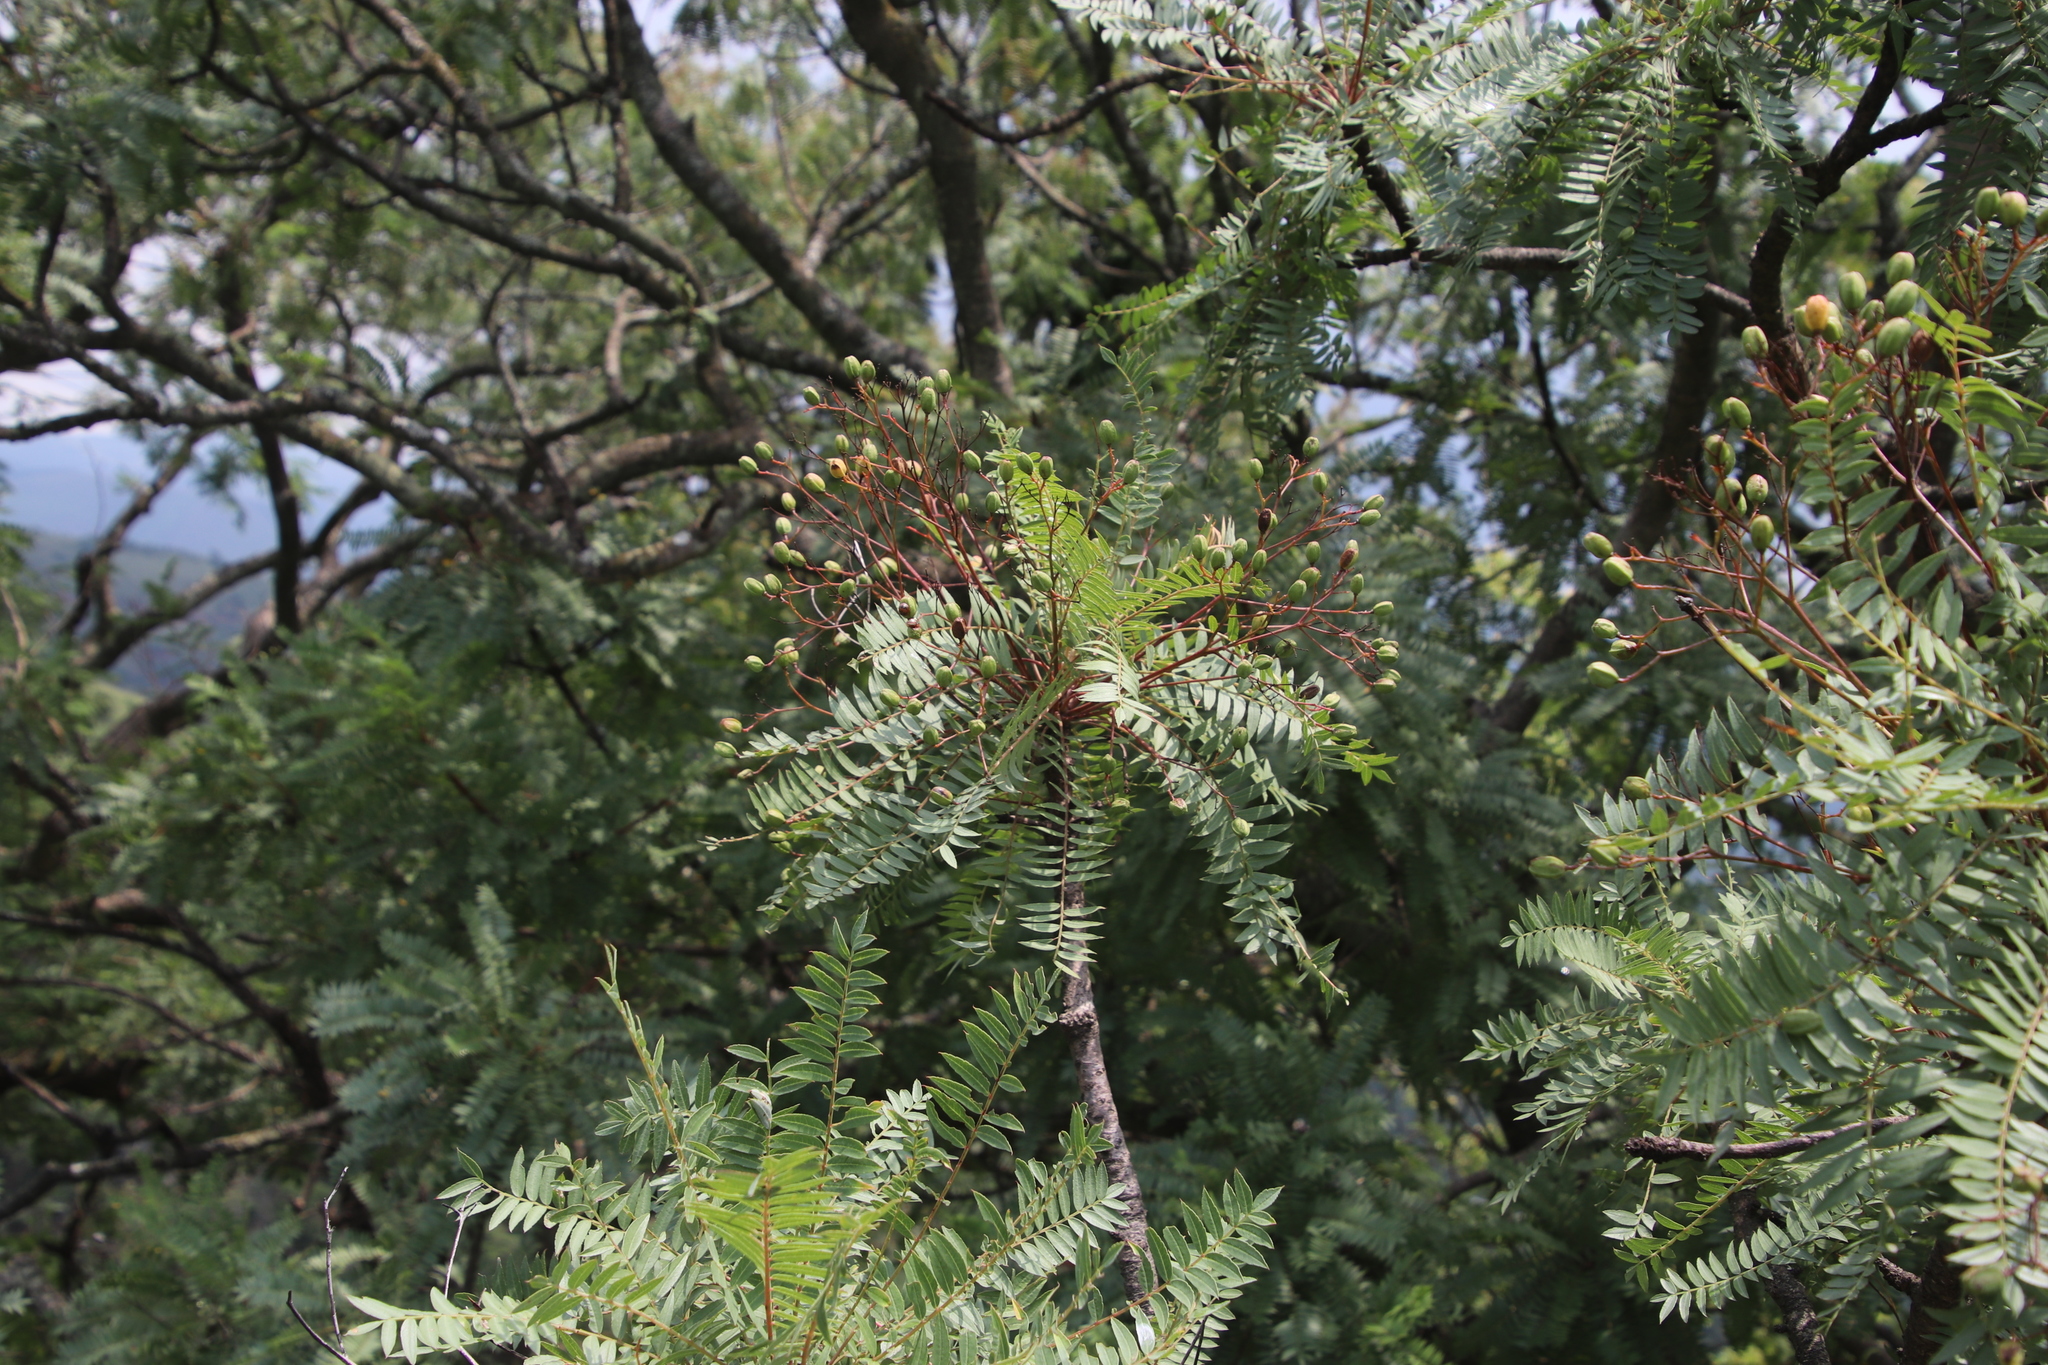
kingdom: Plantae
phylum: Tracheophyta
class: Magnoliopsida
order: Sapindales
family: Kirkiaceae
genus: Kirkia
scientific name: Kirkia wilmsii
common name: Mountain seringa
